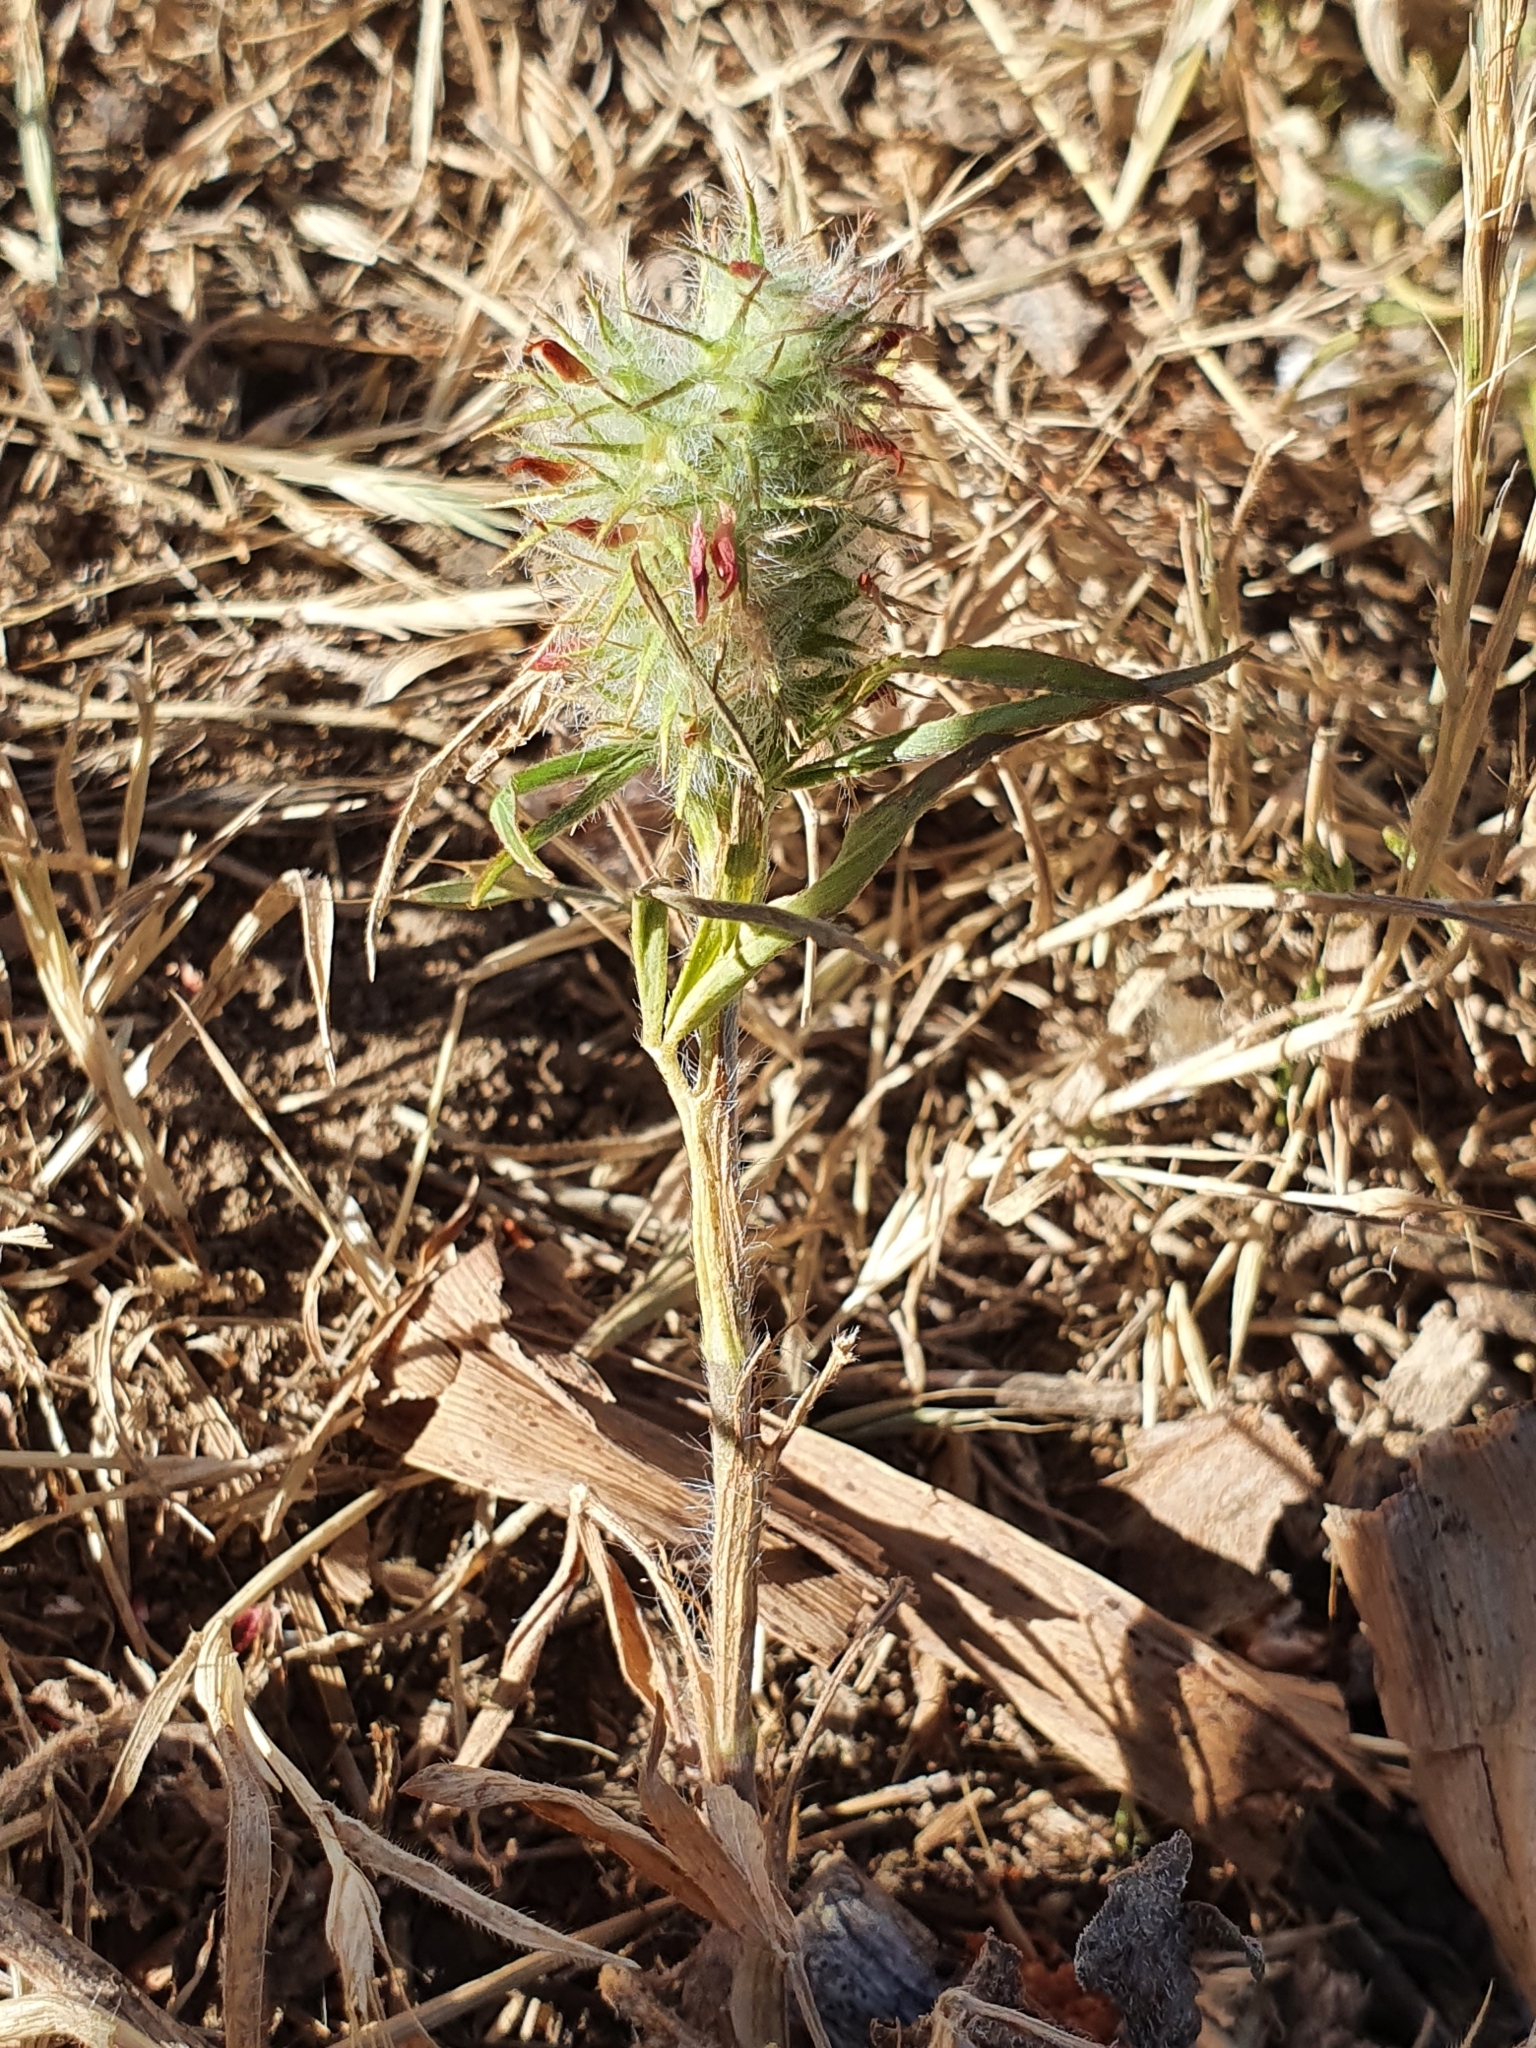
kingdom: Plantae
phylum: Tracheophyta
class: Magnoliopsida
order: Fabales
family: Fabaceae
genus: Trifolium
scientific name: Trifolium angustifolium
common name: Narrow clover
